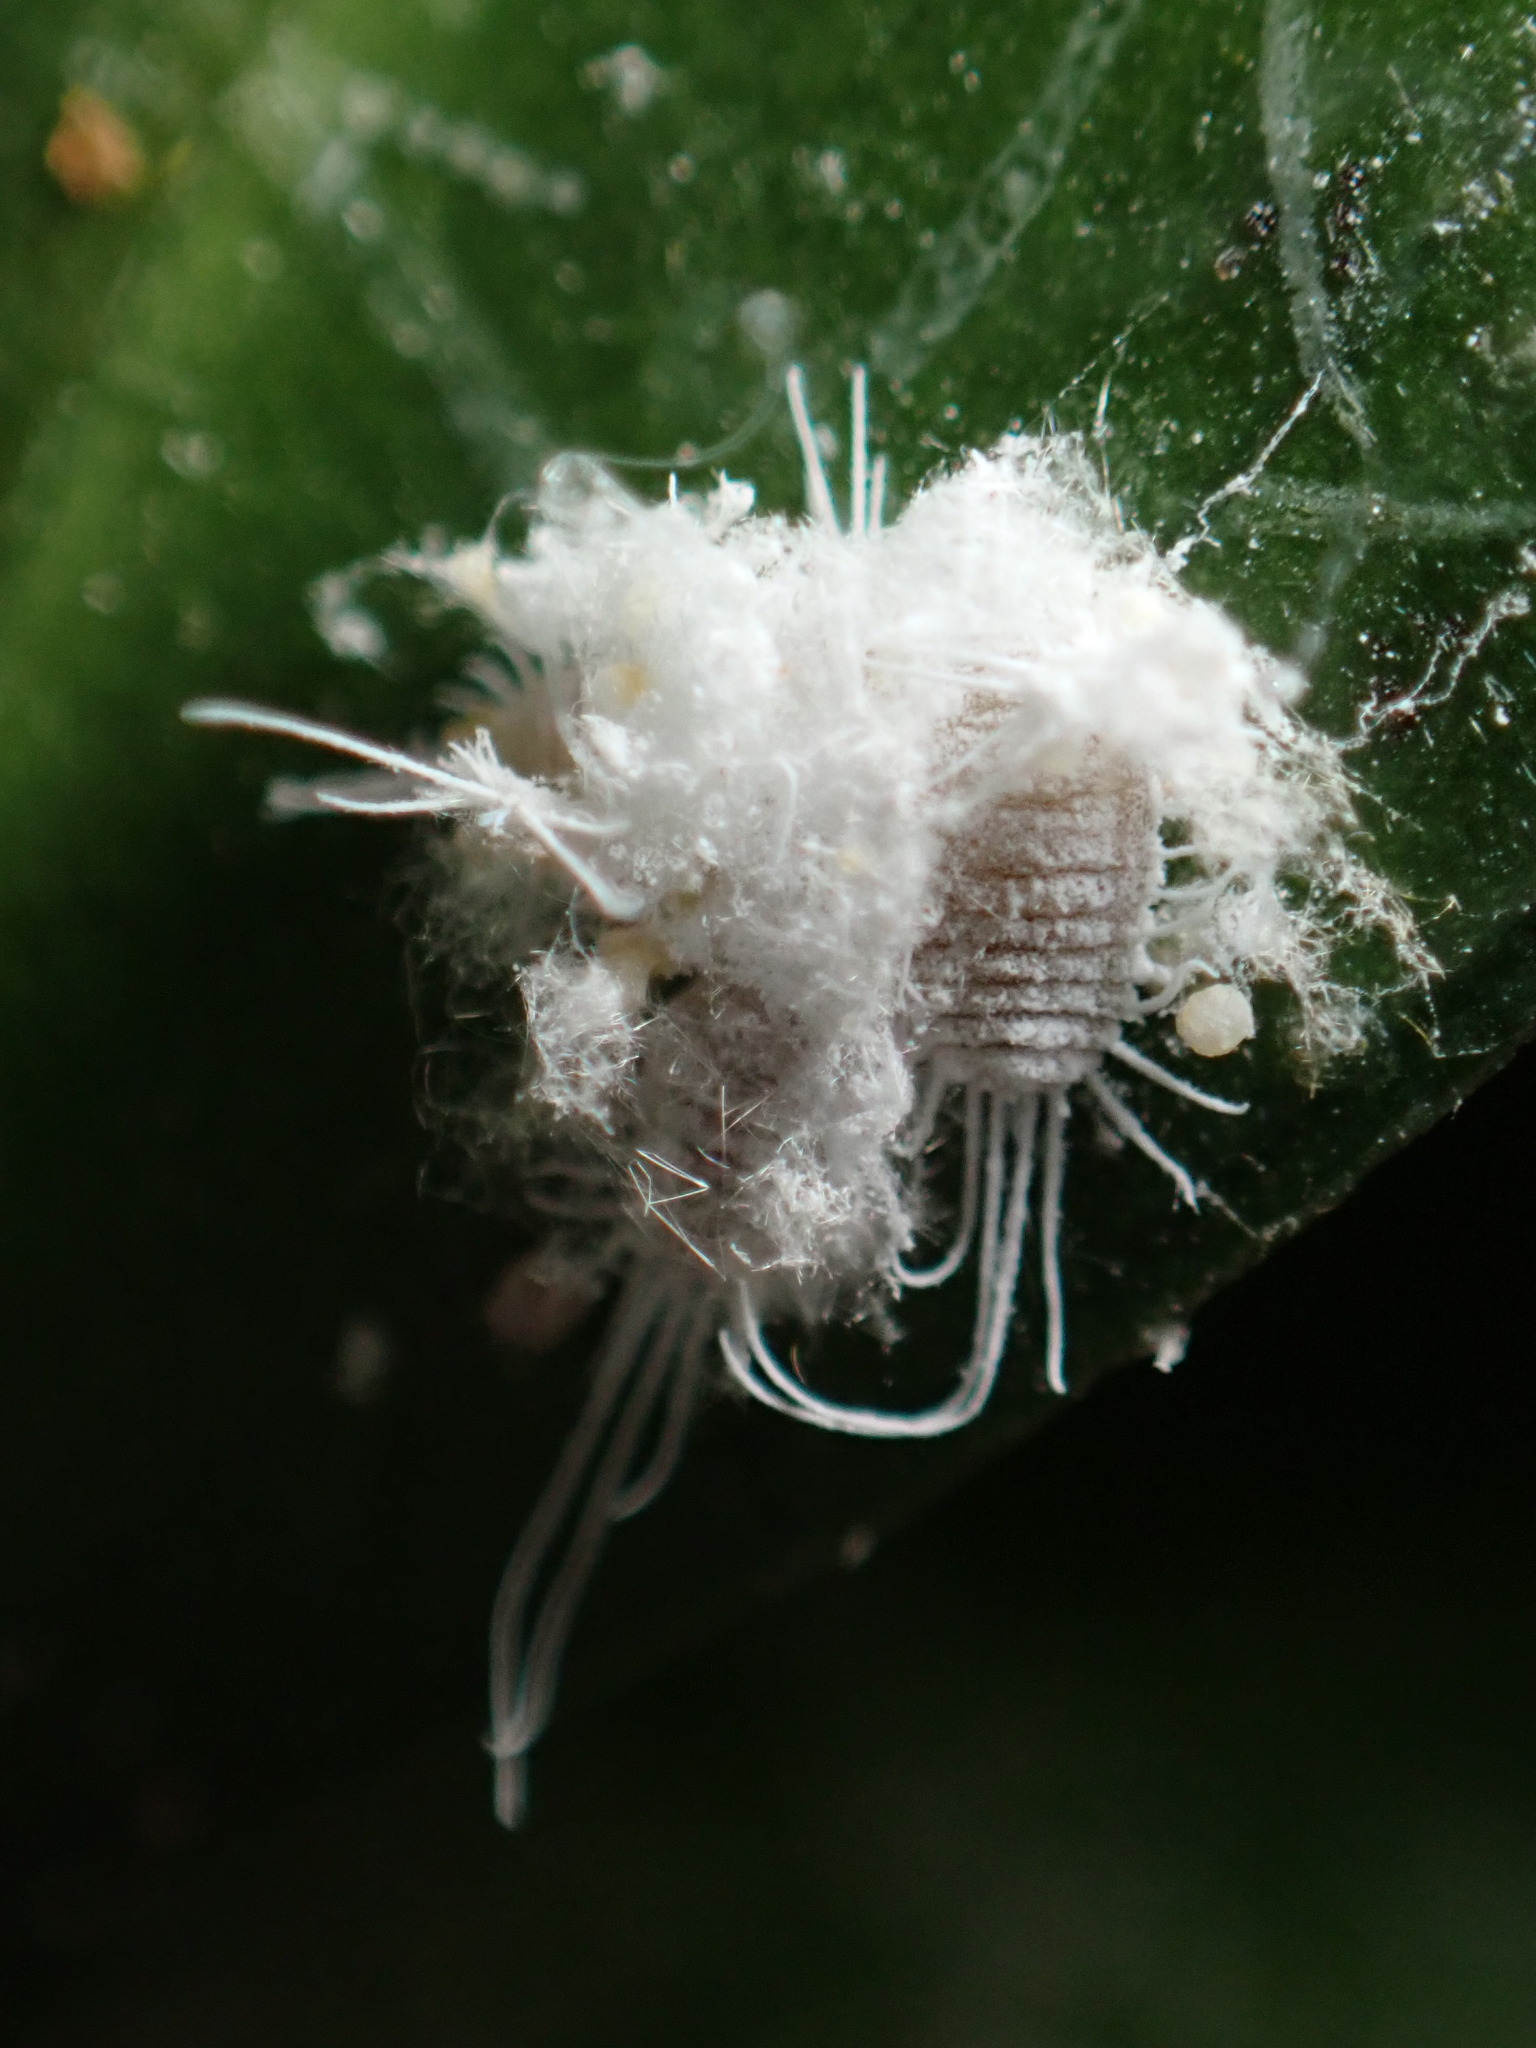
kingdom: Animalia
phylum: Arthropoda
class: Insecta
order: Hemiptera
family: Pseudococcidae
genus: Pseudococcus
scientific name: Pseudococcus longispinus
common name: Long-tailed mealybug
